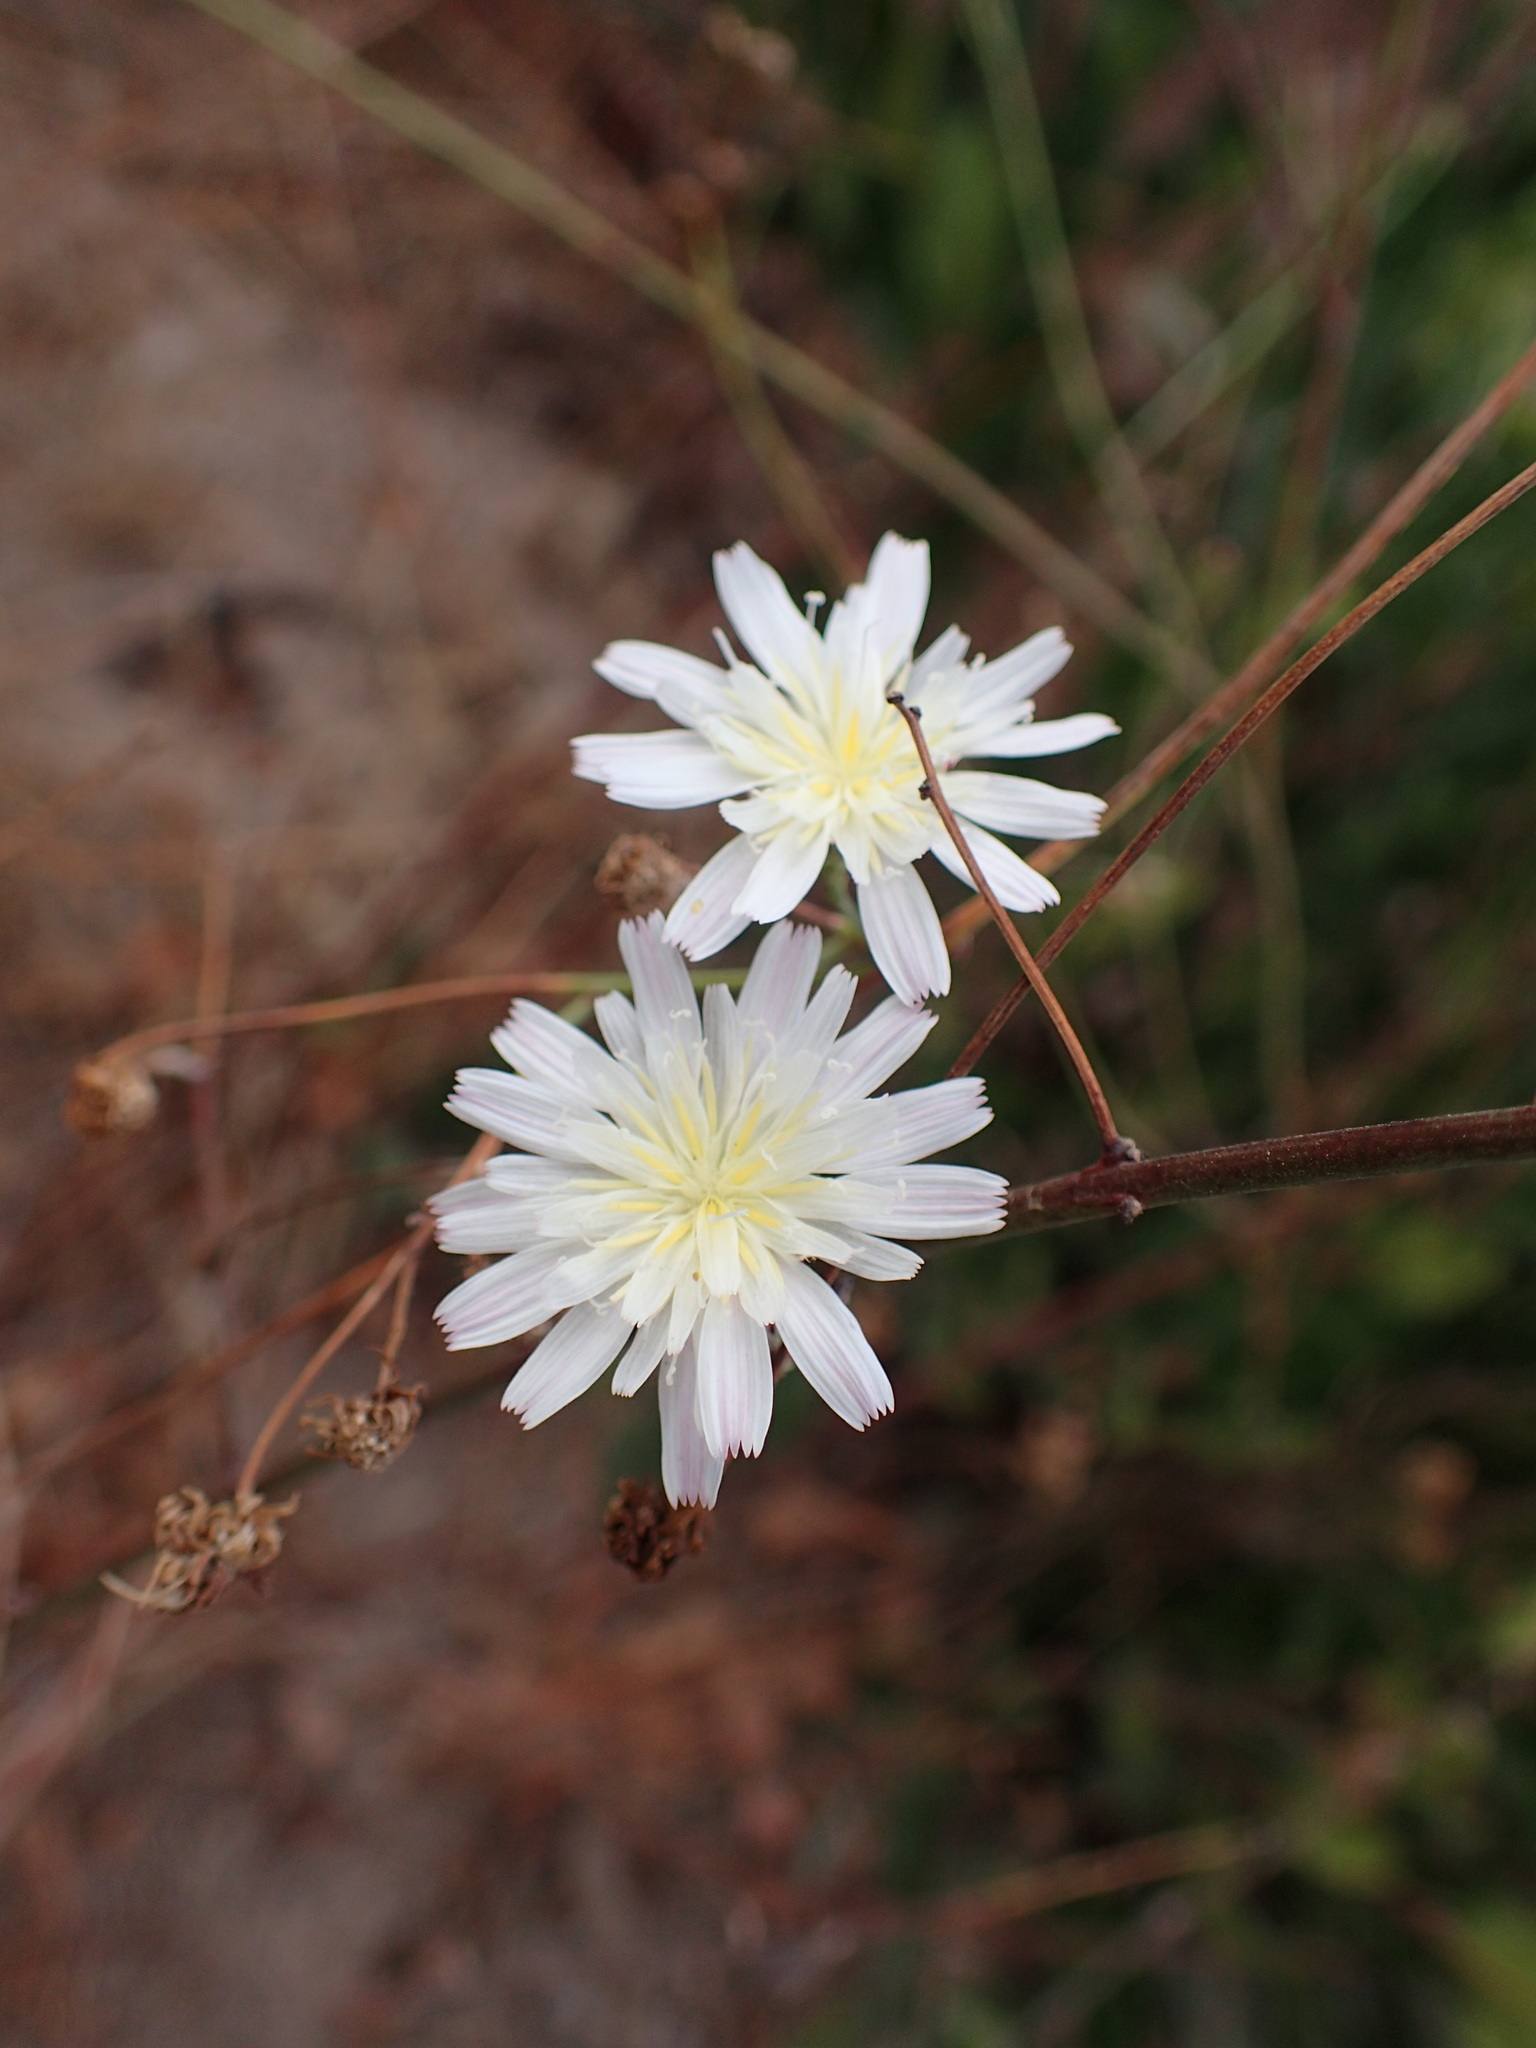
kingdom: Plantae
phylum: Tracheophyta
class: Magnoliopsida
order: Asterales
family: Asteraceae
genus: Malacothrix
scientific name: Malacothrix saxatilis
